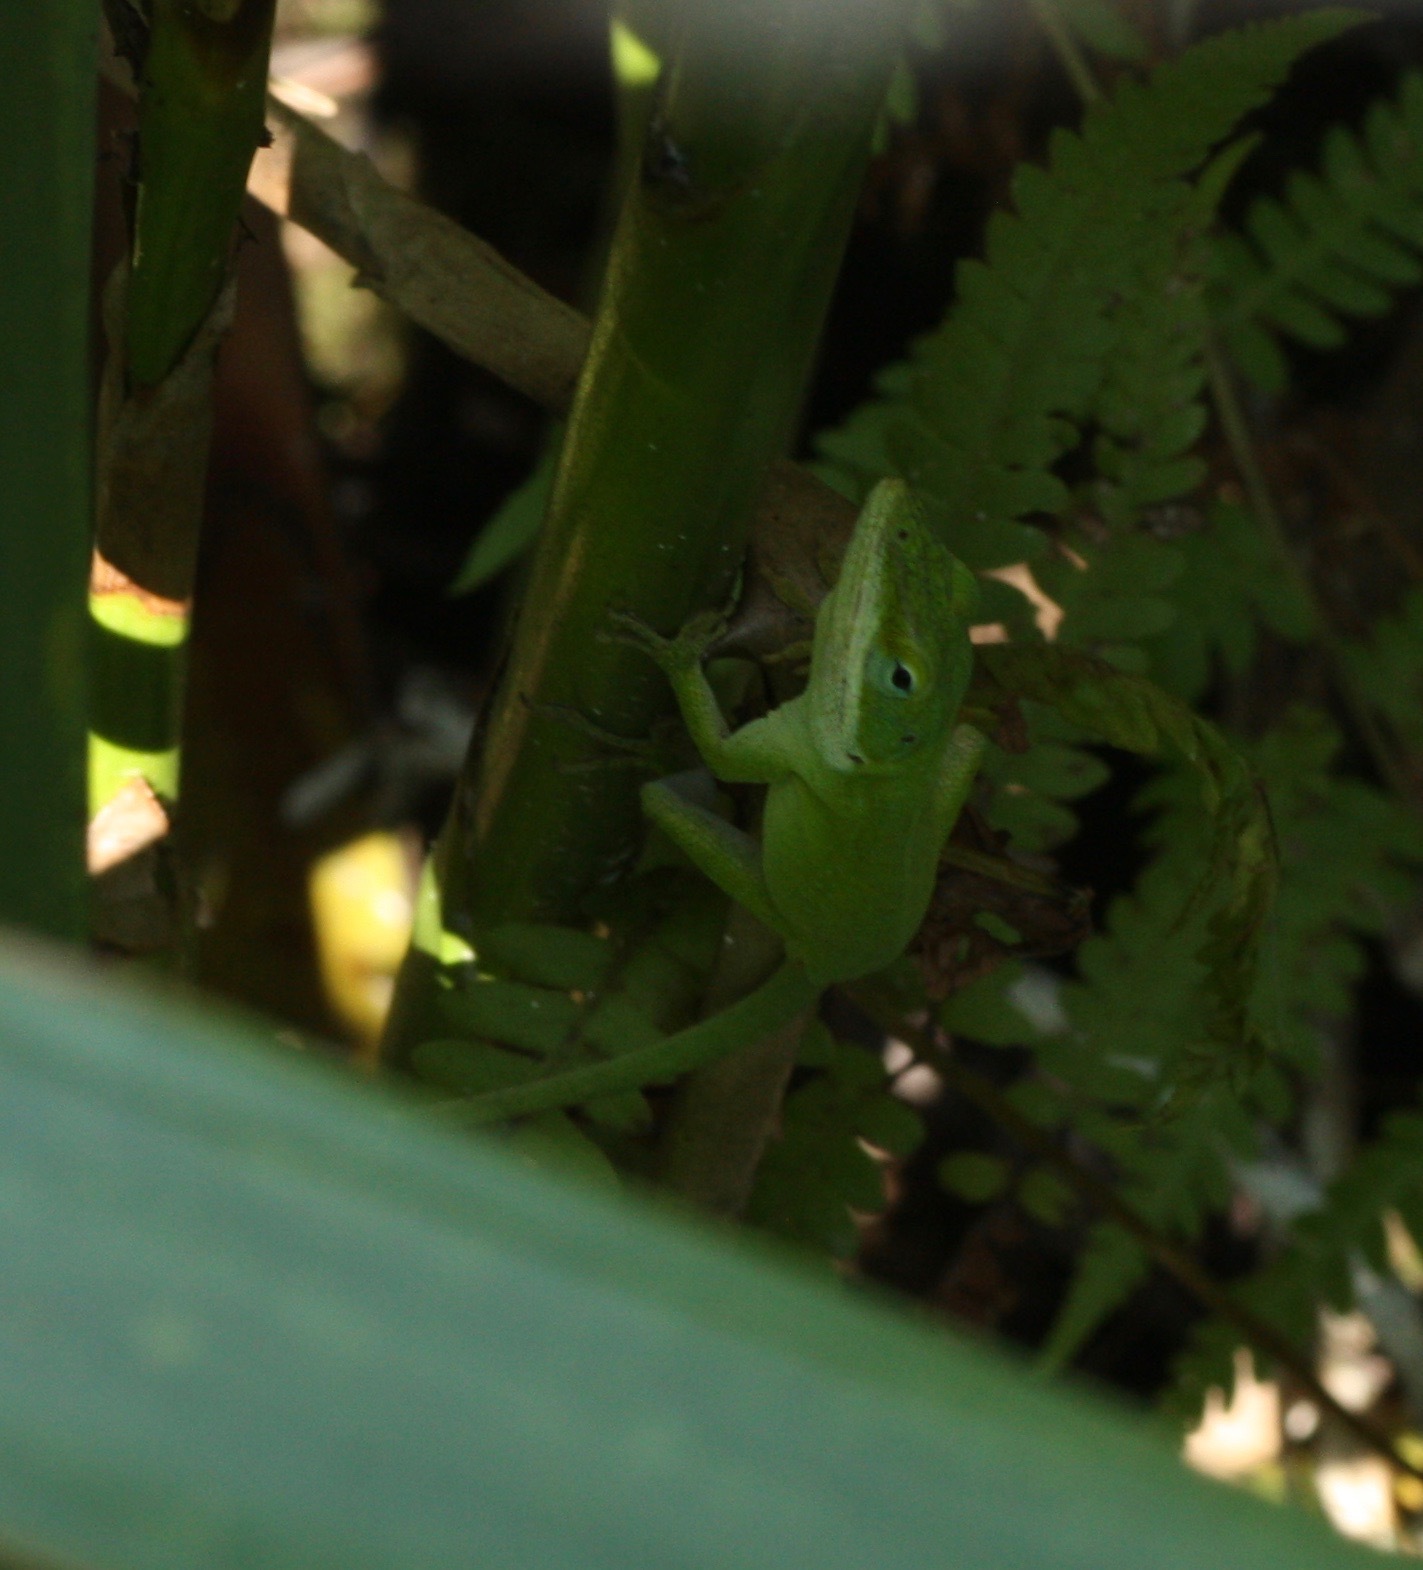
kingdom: Animalia
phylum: Chordata
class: Squamata
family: Dactyloidae
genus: Anolis
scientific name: Anolis carolinensis
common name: Green anole
